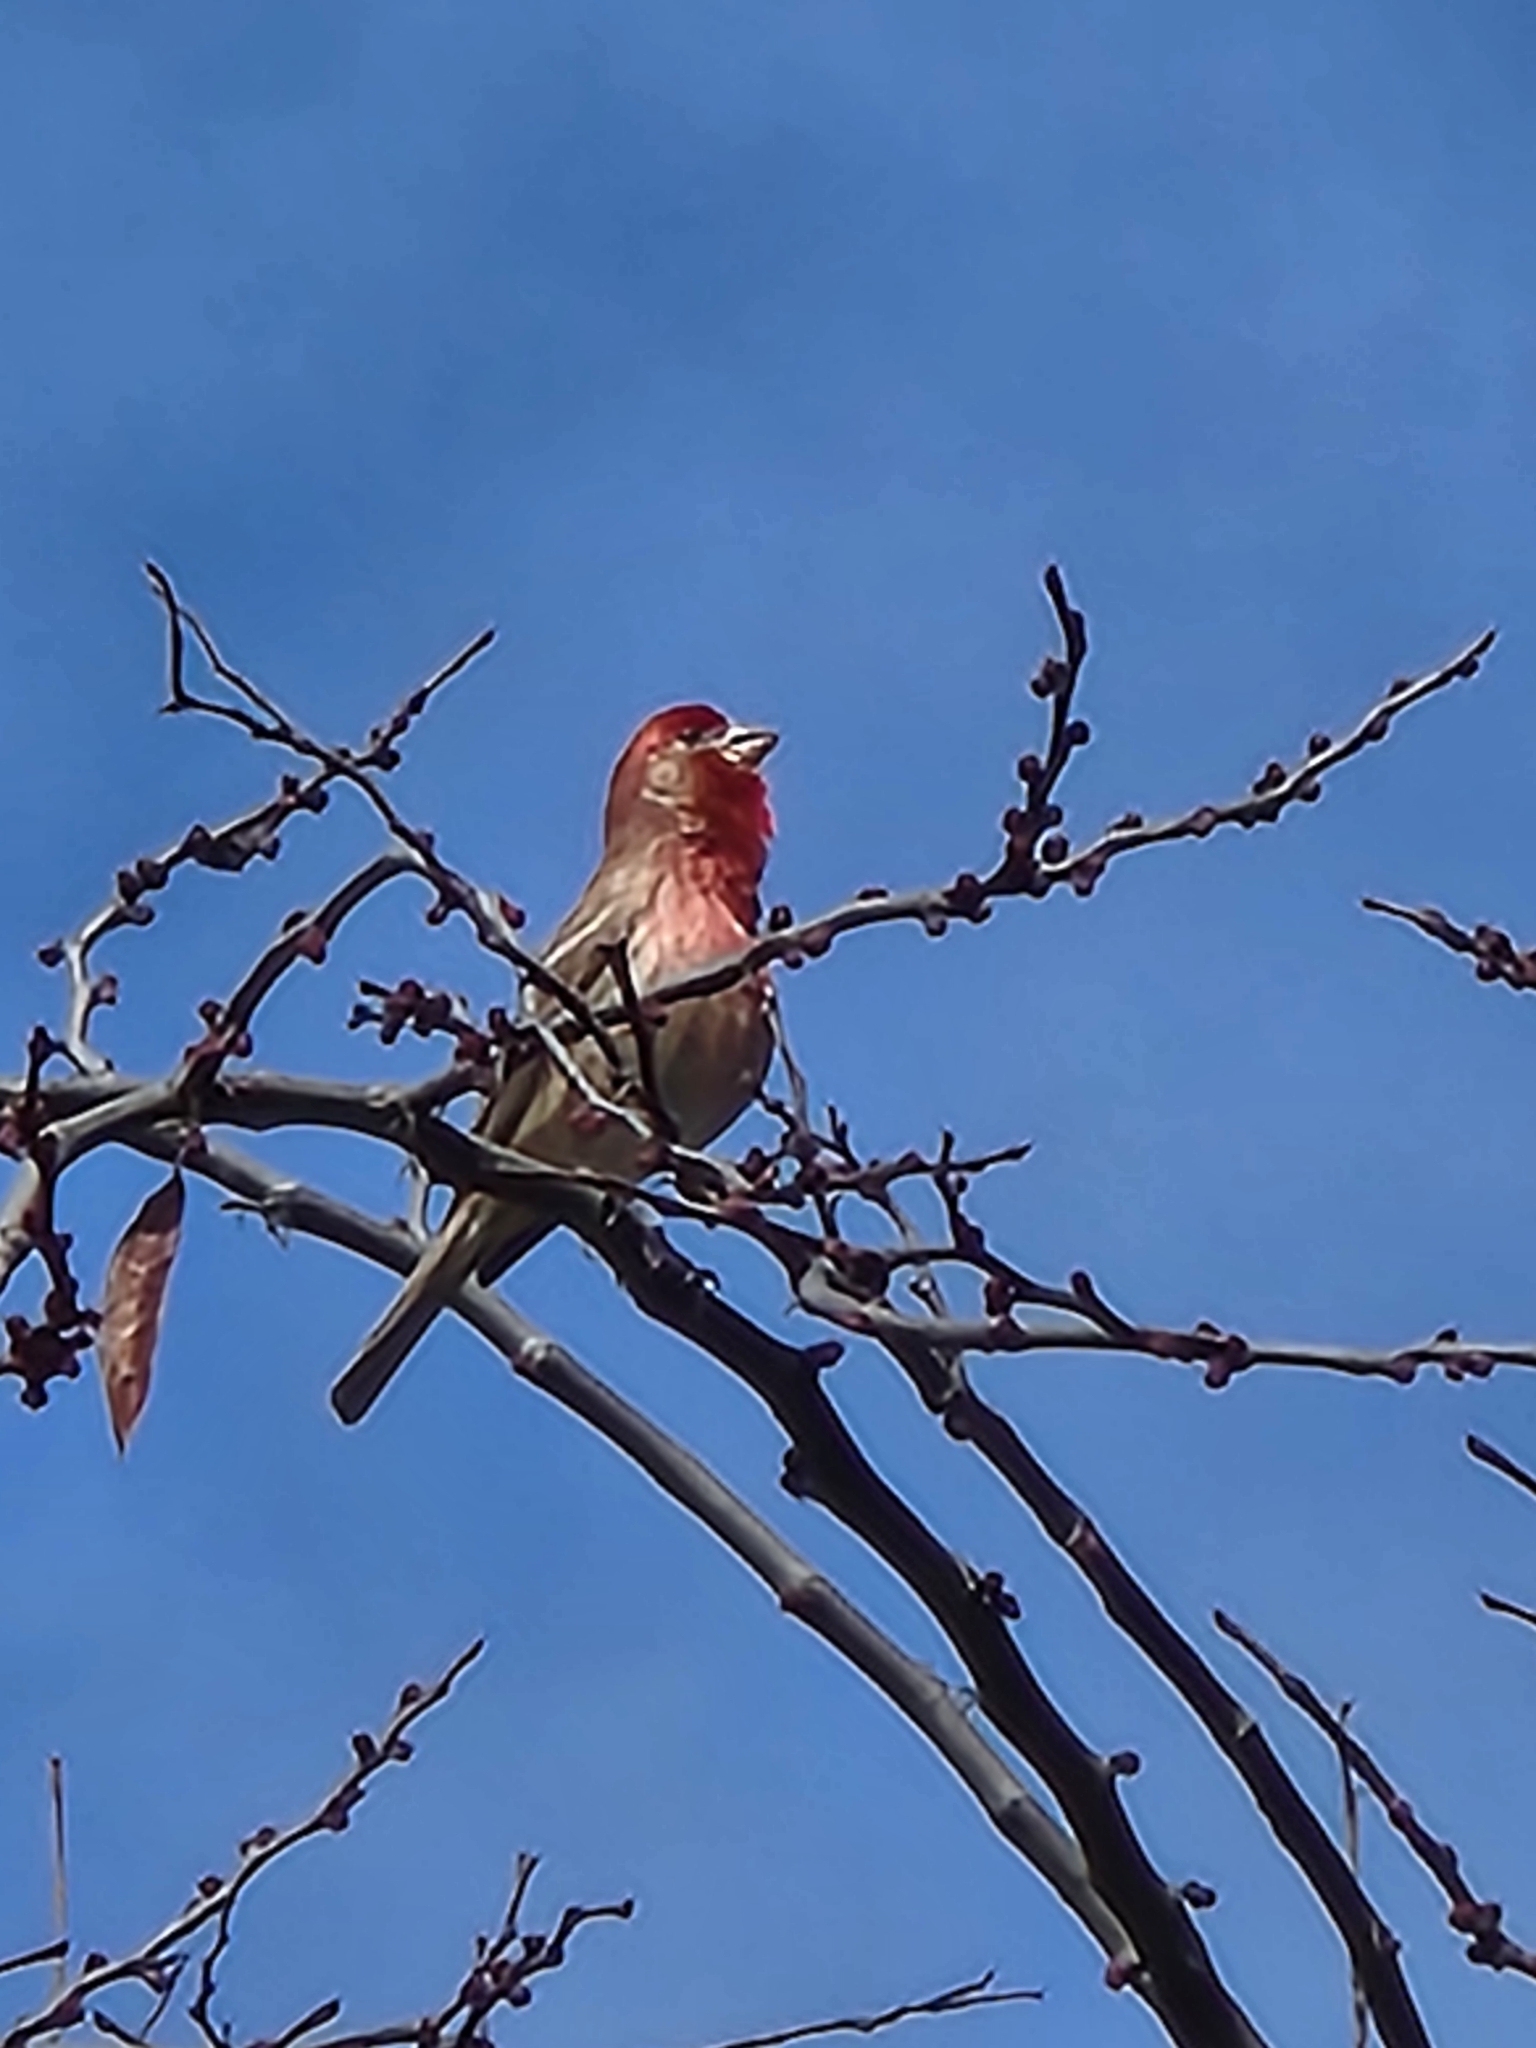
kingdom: Animalia
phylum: Chordata
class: Aves
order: Passeriformes
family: Fringillidae
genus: Haemorhous
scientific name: Haemorhous mexicanus
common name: House finch
